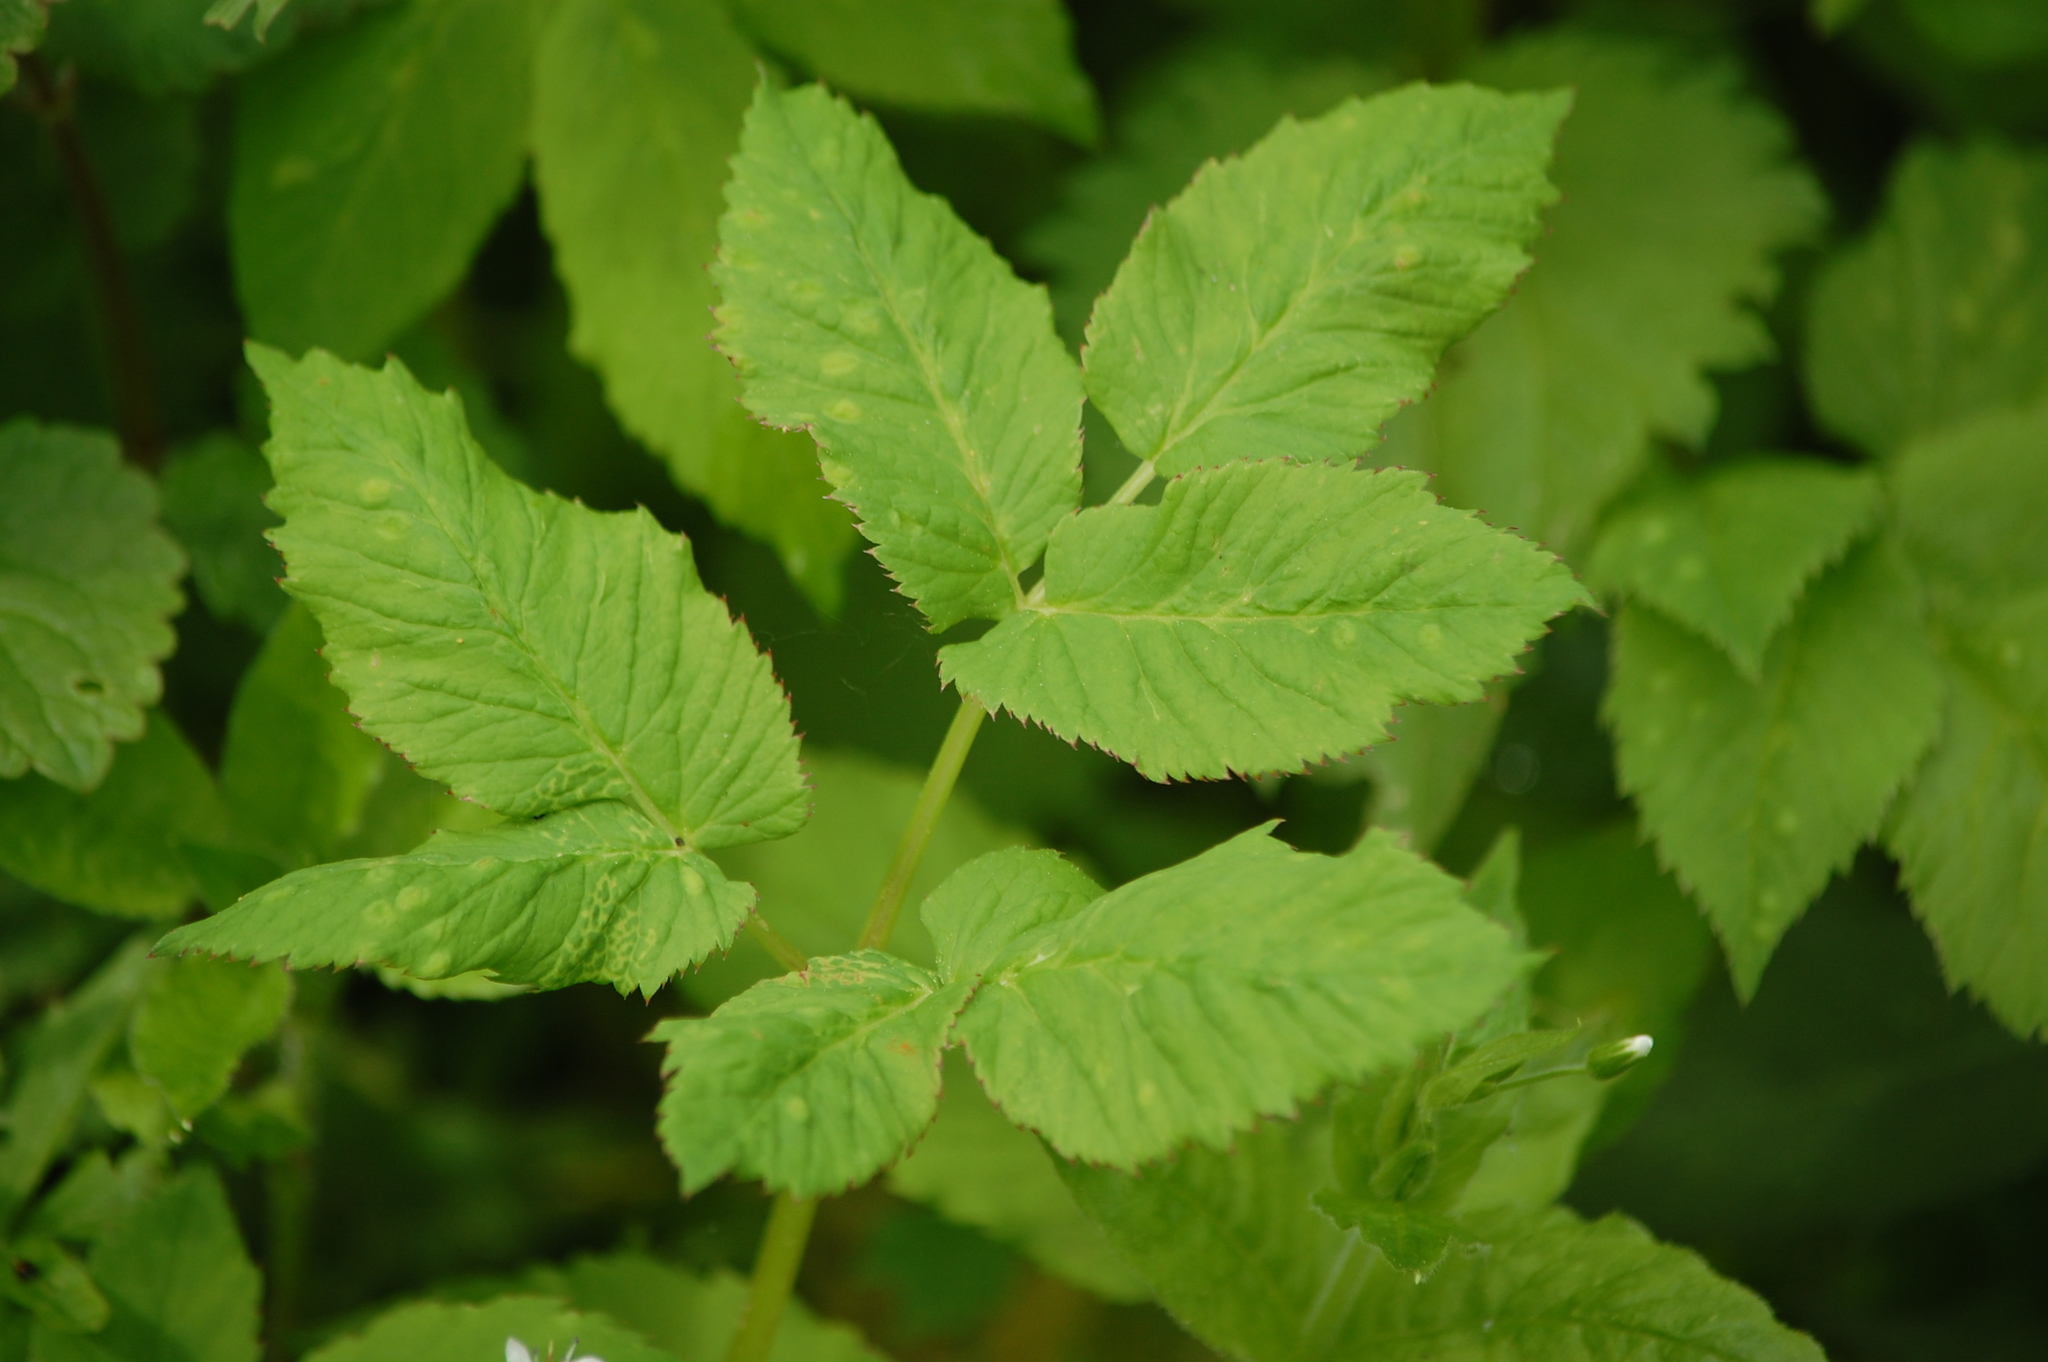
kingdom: Plantae
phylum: Tracheophyta
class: Magnoliopsida
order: Apiales
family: Apiaceae
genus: Aegopodium
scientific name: Aegopodium podagraria
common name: Ground-elder
